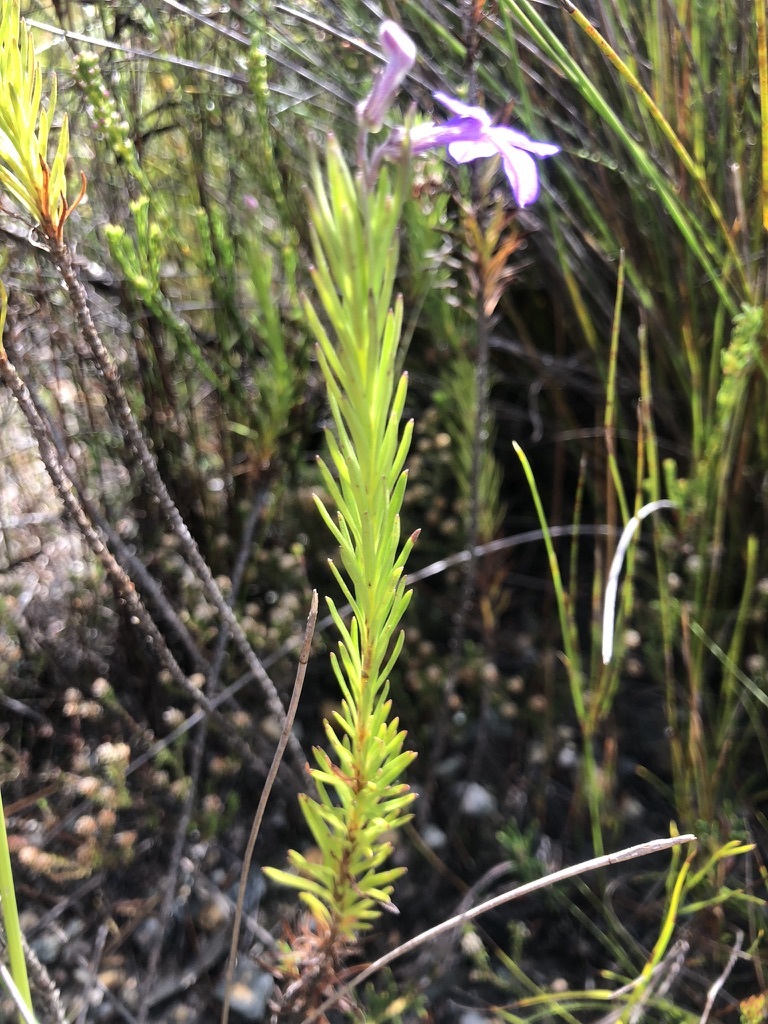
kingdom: Plantae
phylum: Tracheophyta
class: Magnoliopsida
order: Asterales
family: Campanulaceae
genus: Lobelia
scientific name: Lobelia pinifolia
